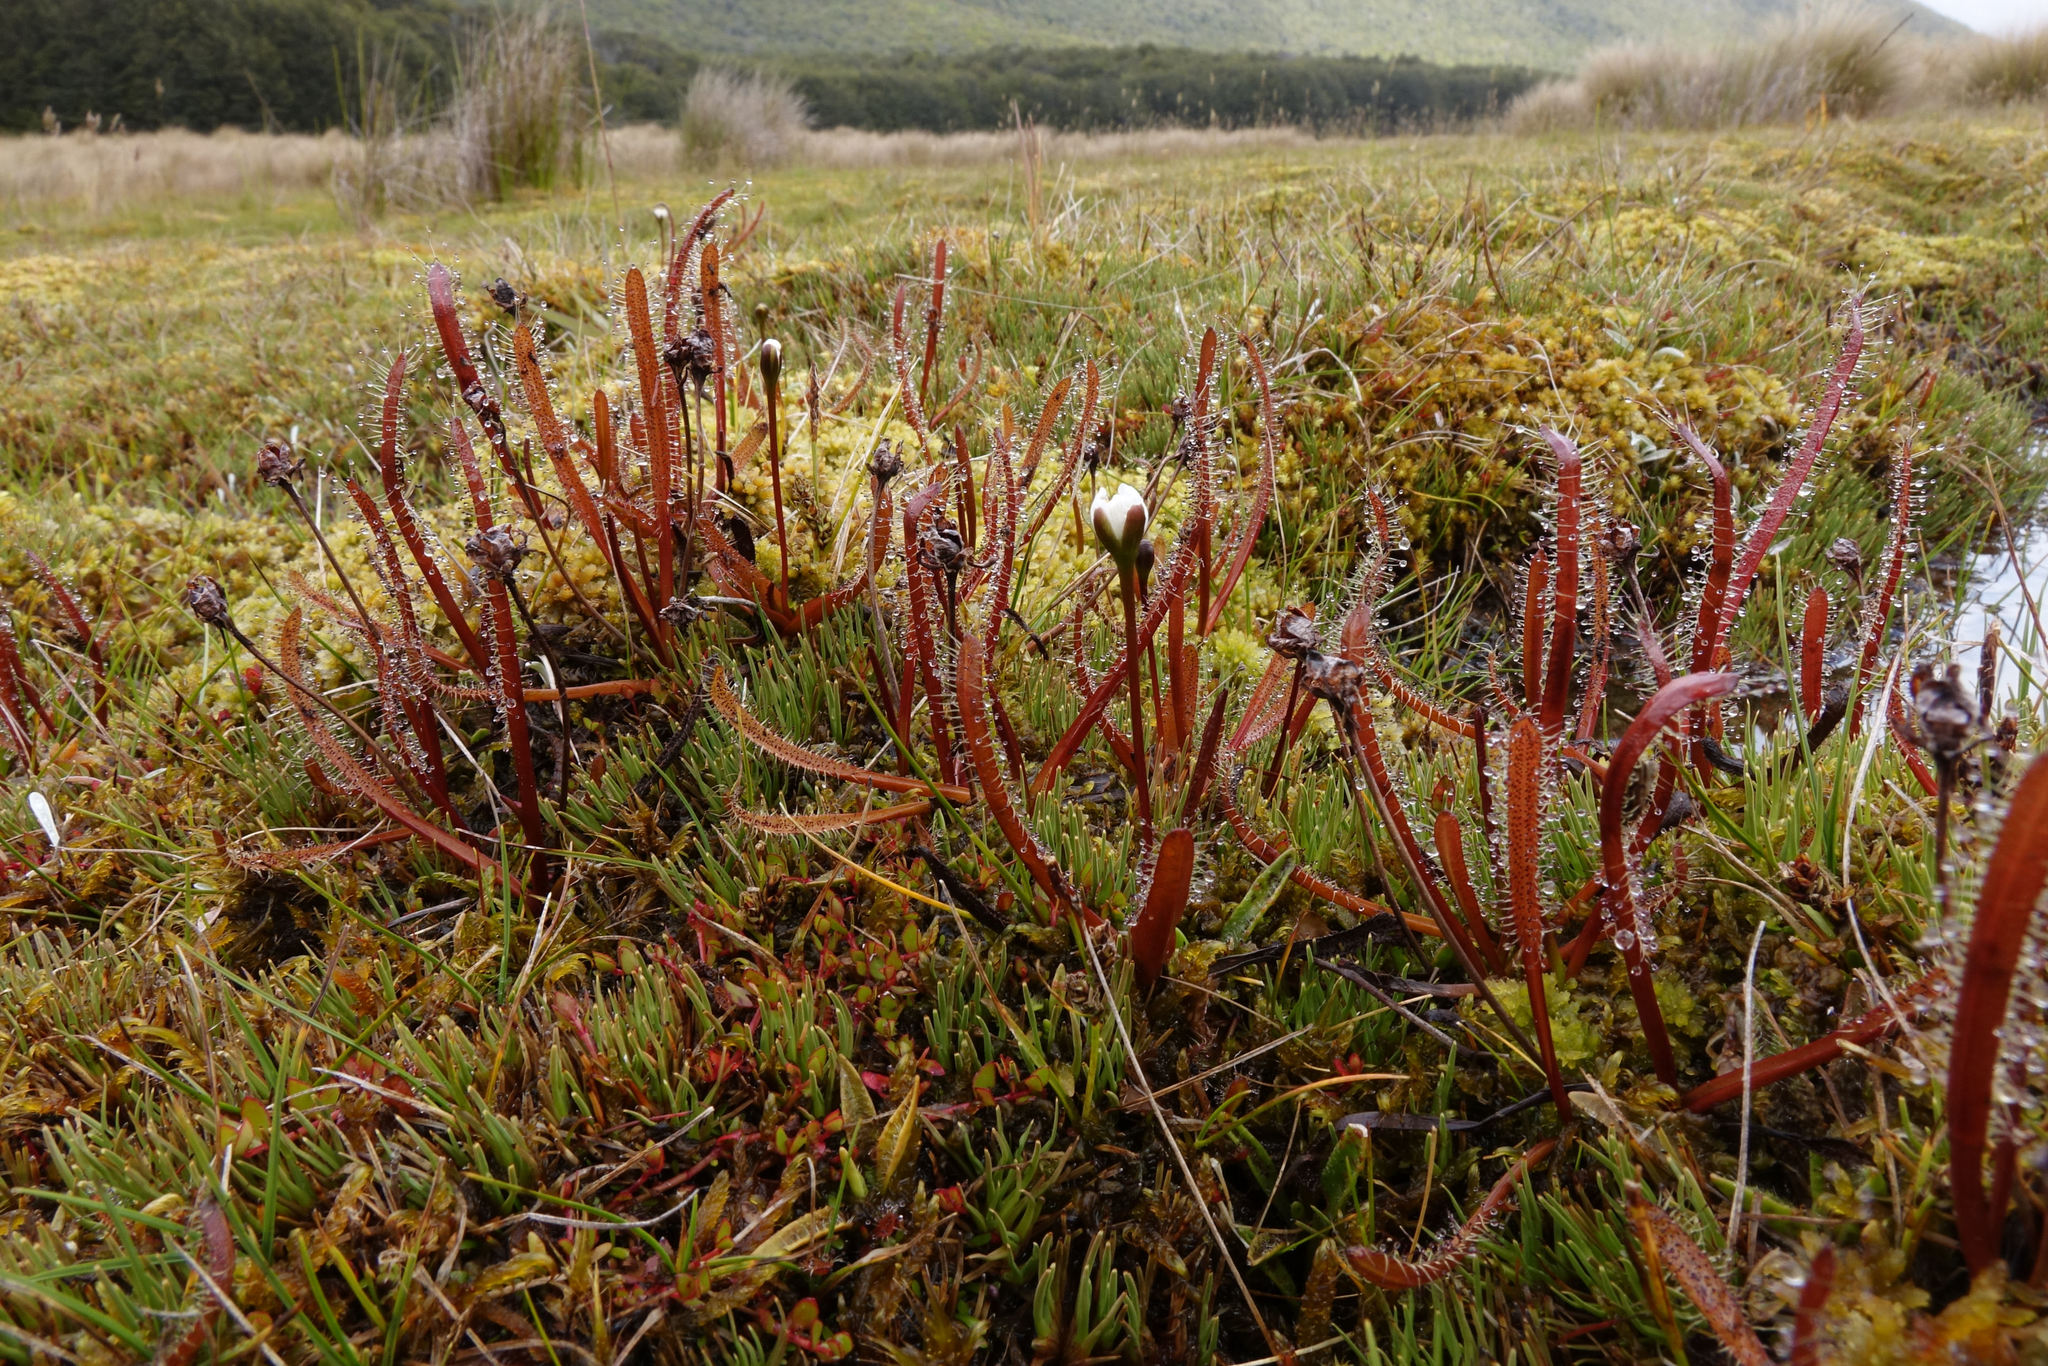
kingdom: Plantae
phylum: Tracheophyta
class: Magnoliopsida
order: Caryophyllales
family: Droseraceae
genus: Drosera
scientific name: Drosera arcturi
